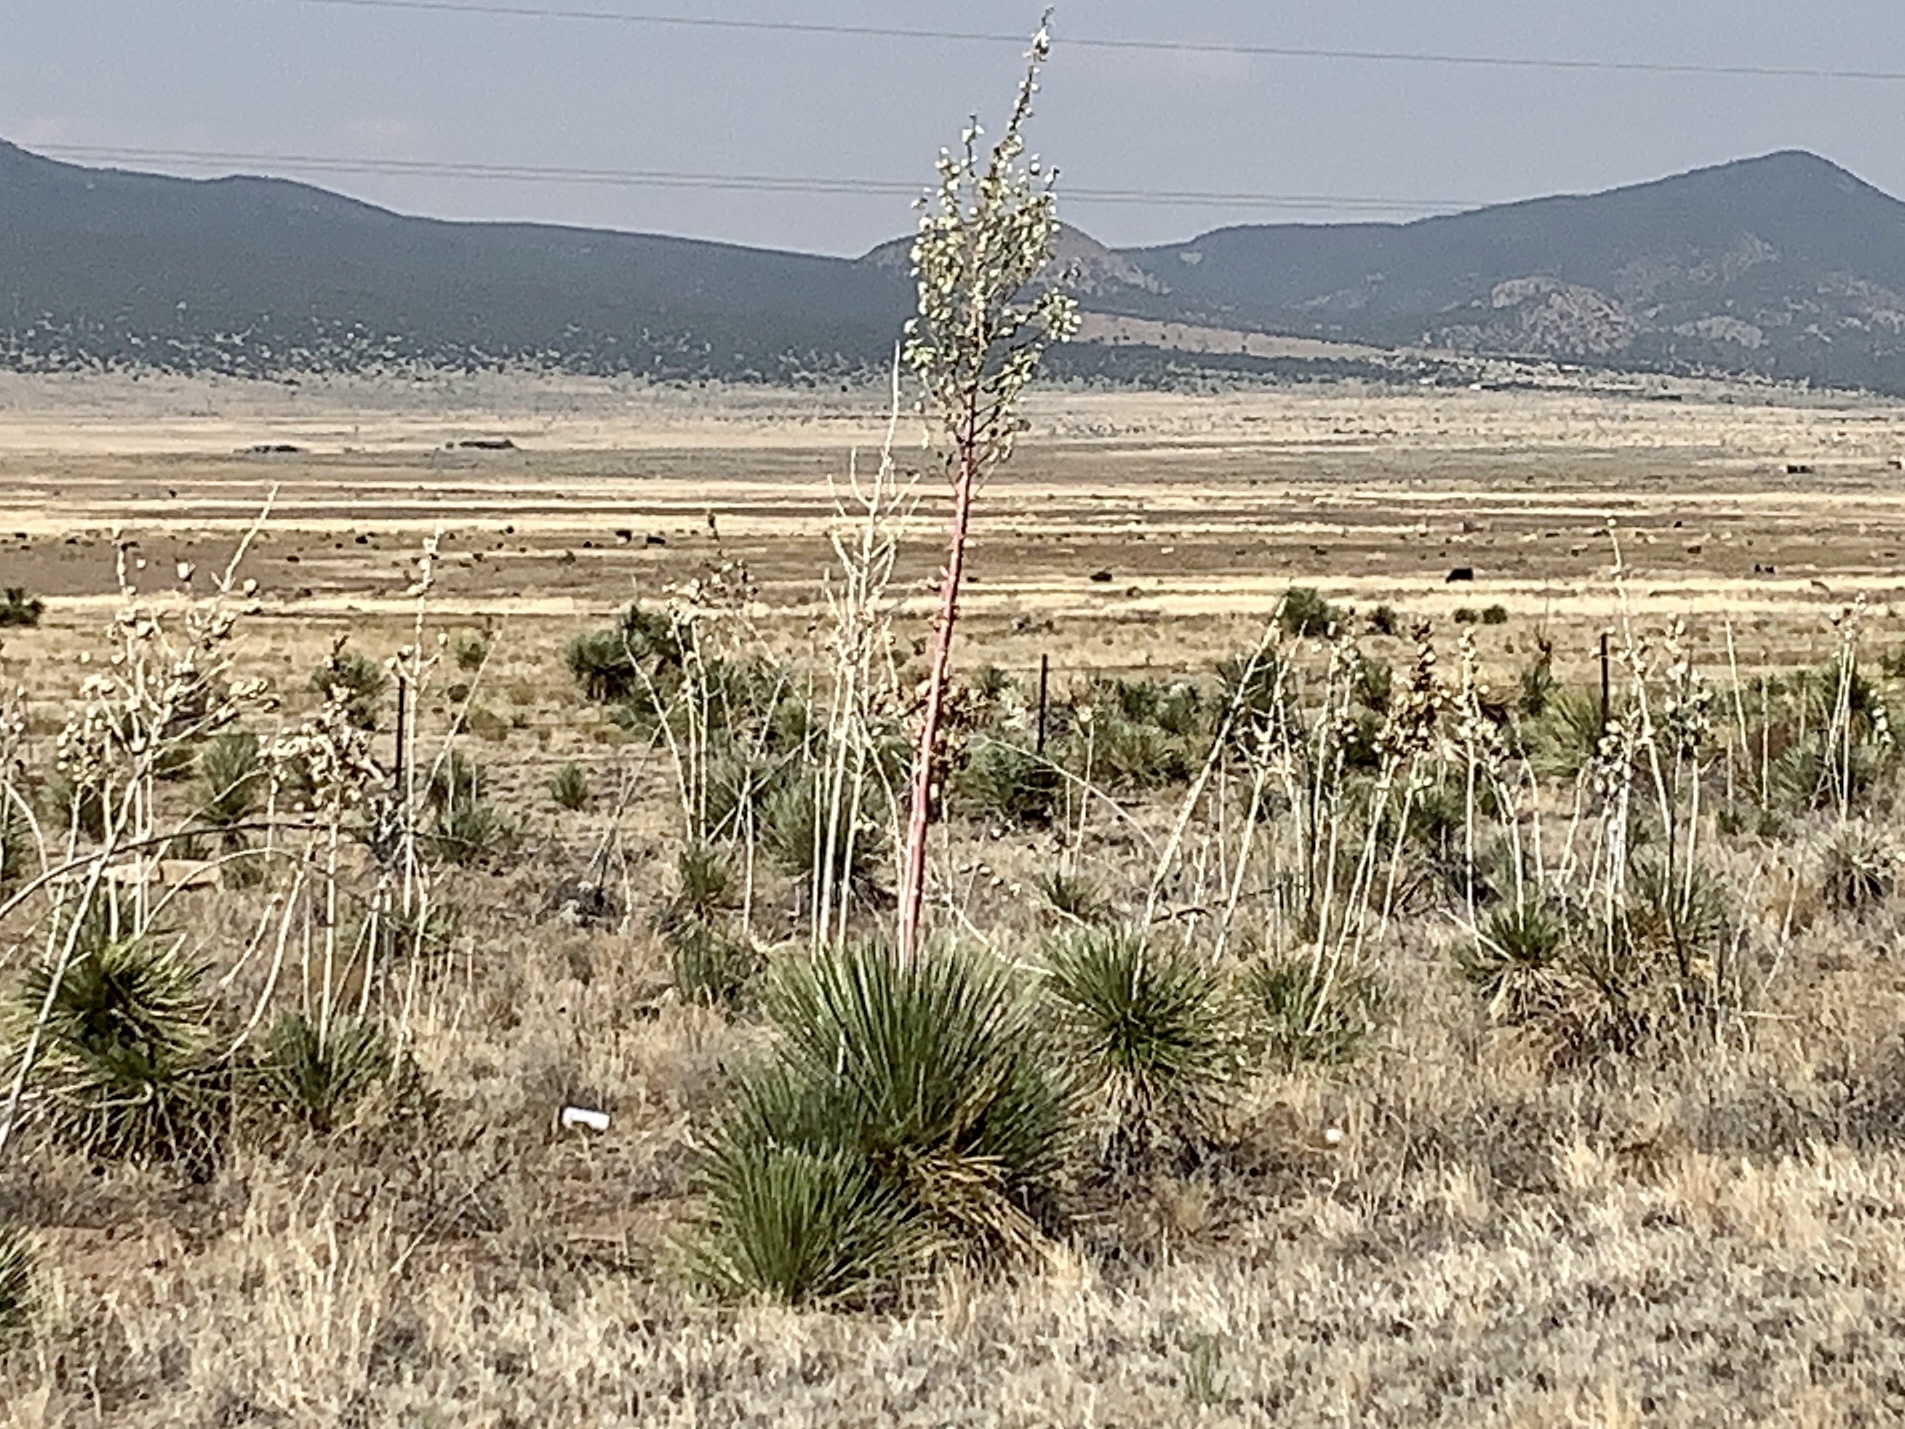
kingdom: Plantae
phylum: Tracheophyta
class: Liliopsida
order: Asparagales
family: Asparagaceae
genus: Yucca
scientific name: Yucca elata
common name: Palmella
